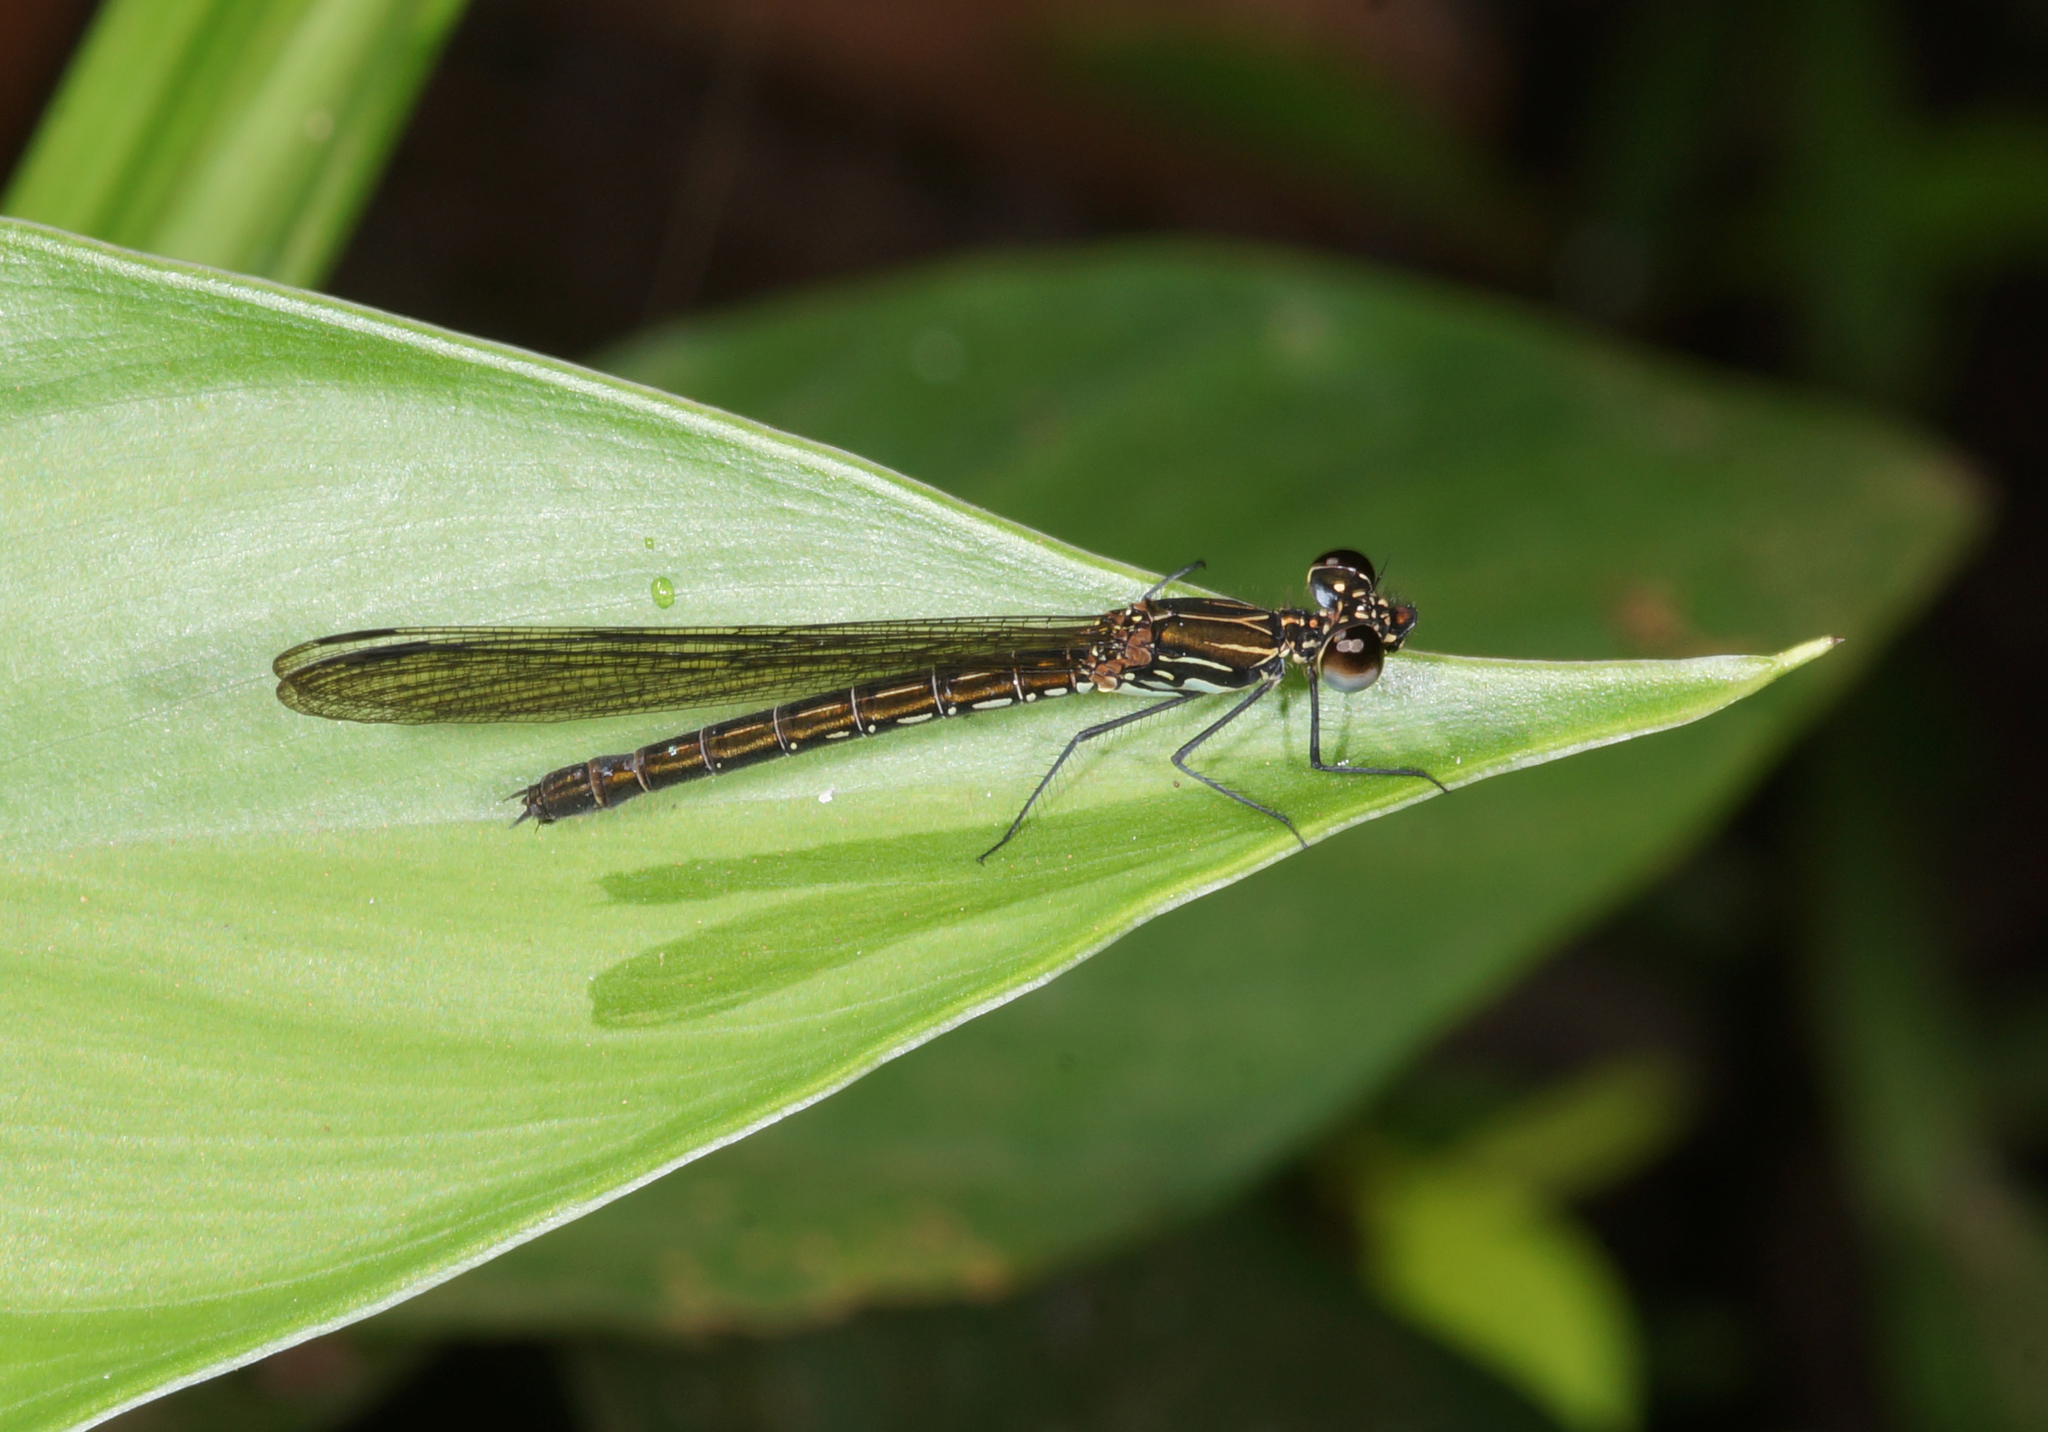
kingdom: Animalia
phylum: Arthropoda
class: Insecta
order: Odonata
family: Chlorocyphidae
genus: Heliocypha
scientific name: Heliocypha biforata
